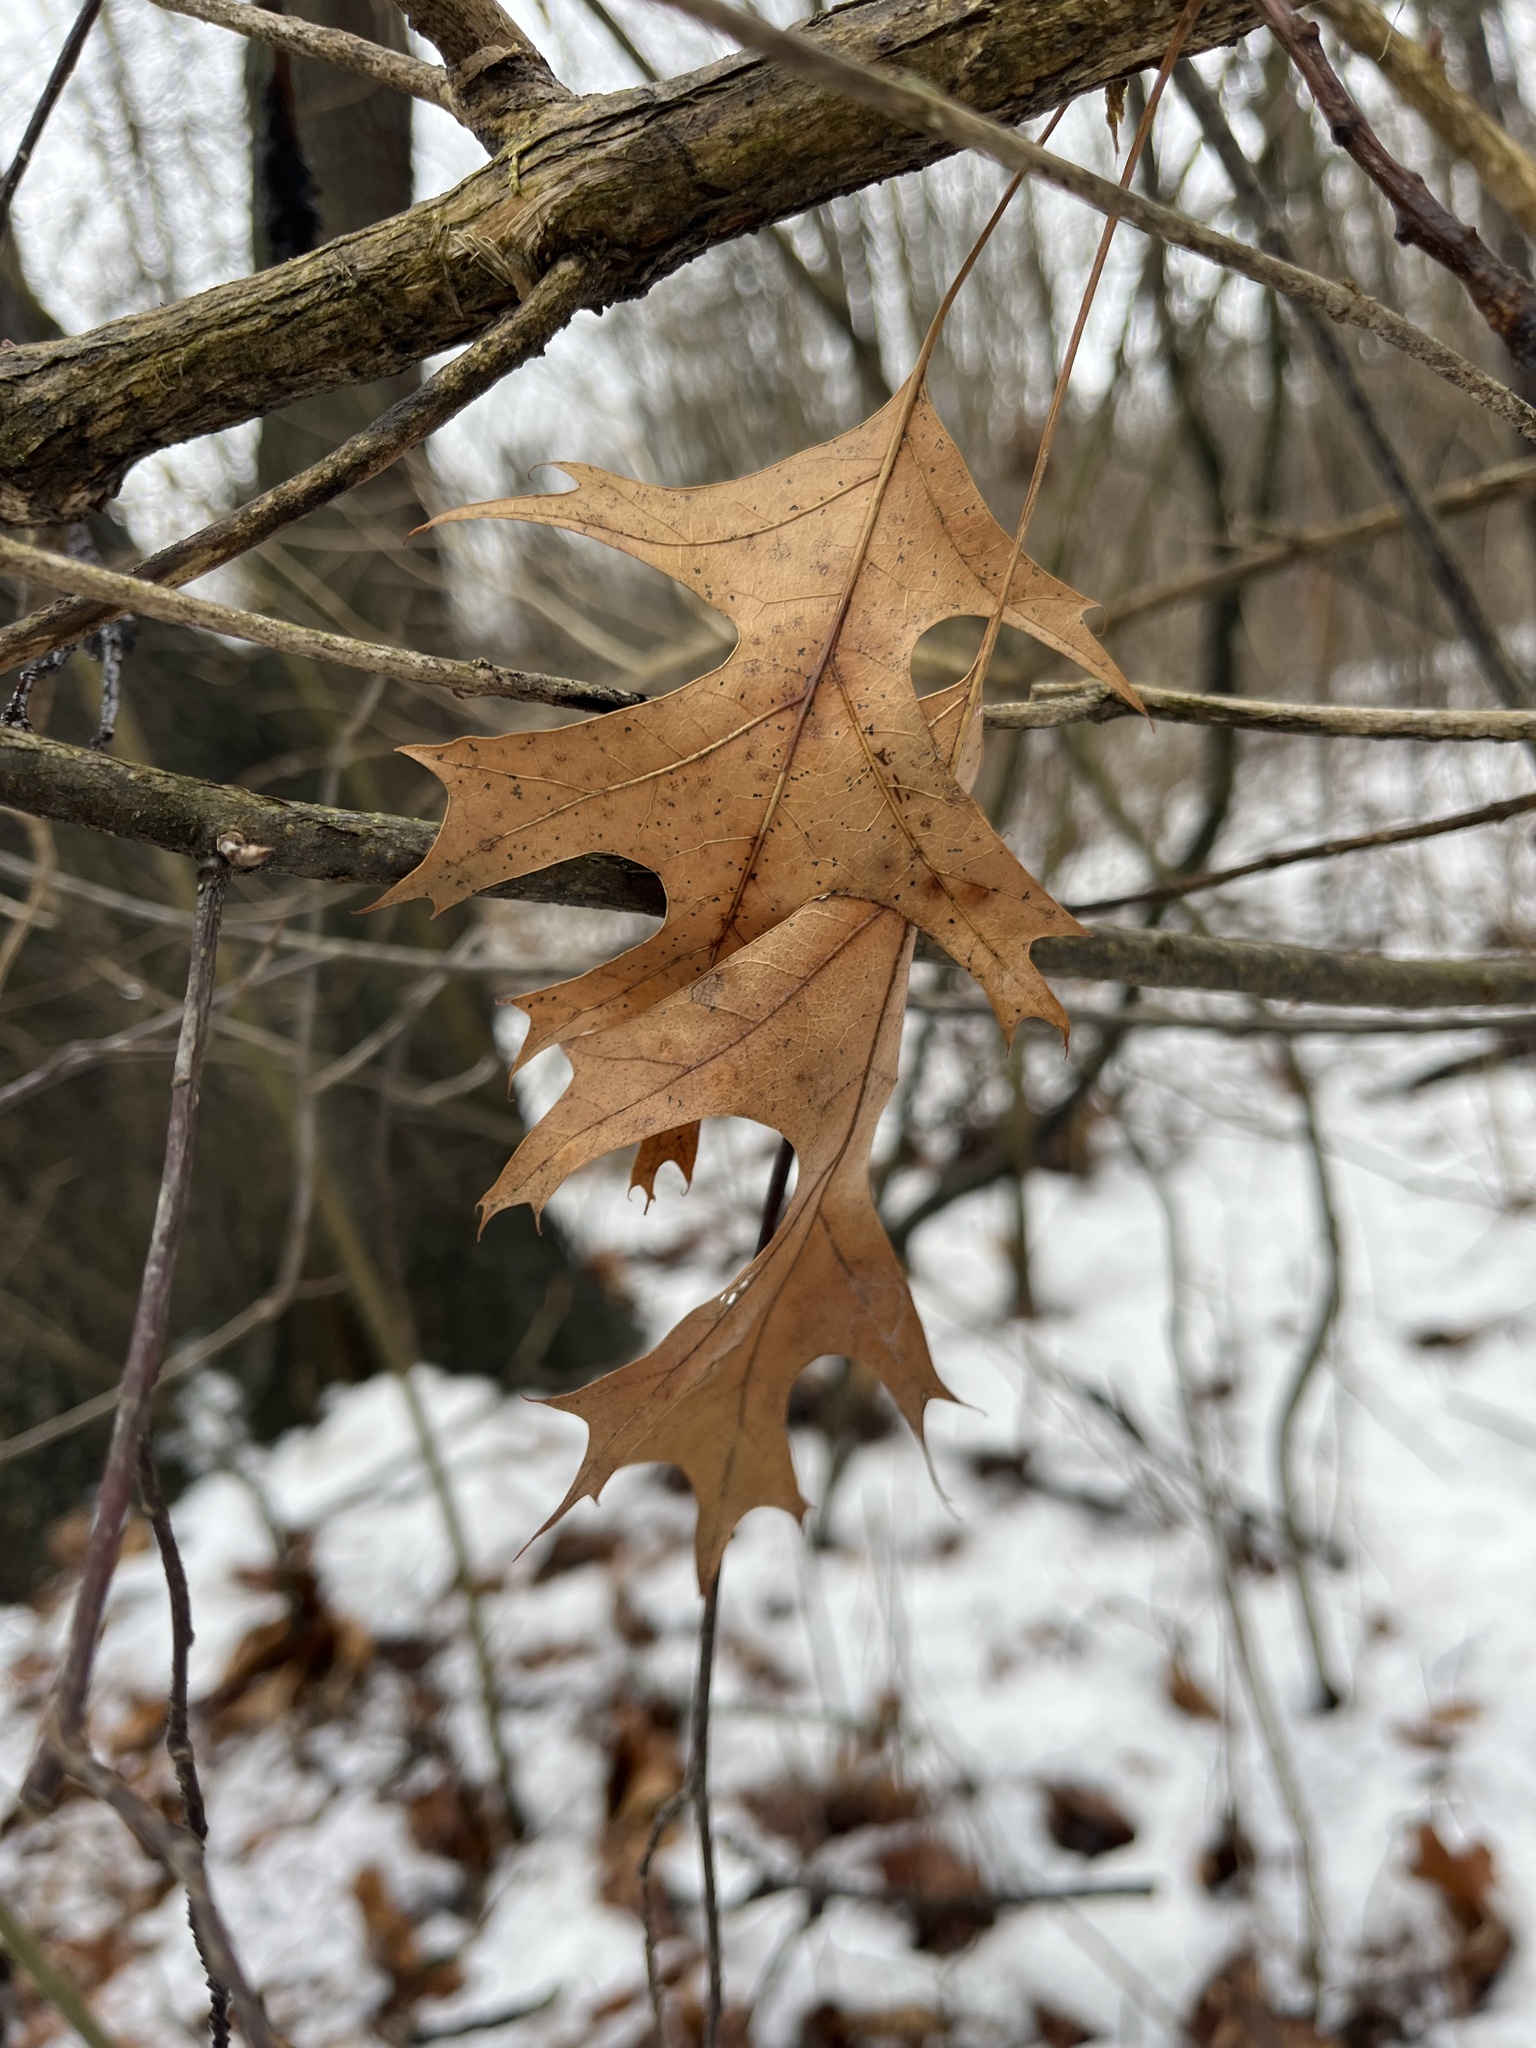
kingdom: Plantae
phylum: Tracheophyta
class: Magnoliopsida
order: Fagales
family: Fagaceae
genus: Quercus
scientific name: Quercus palustris
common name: Pin oak
